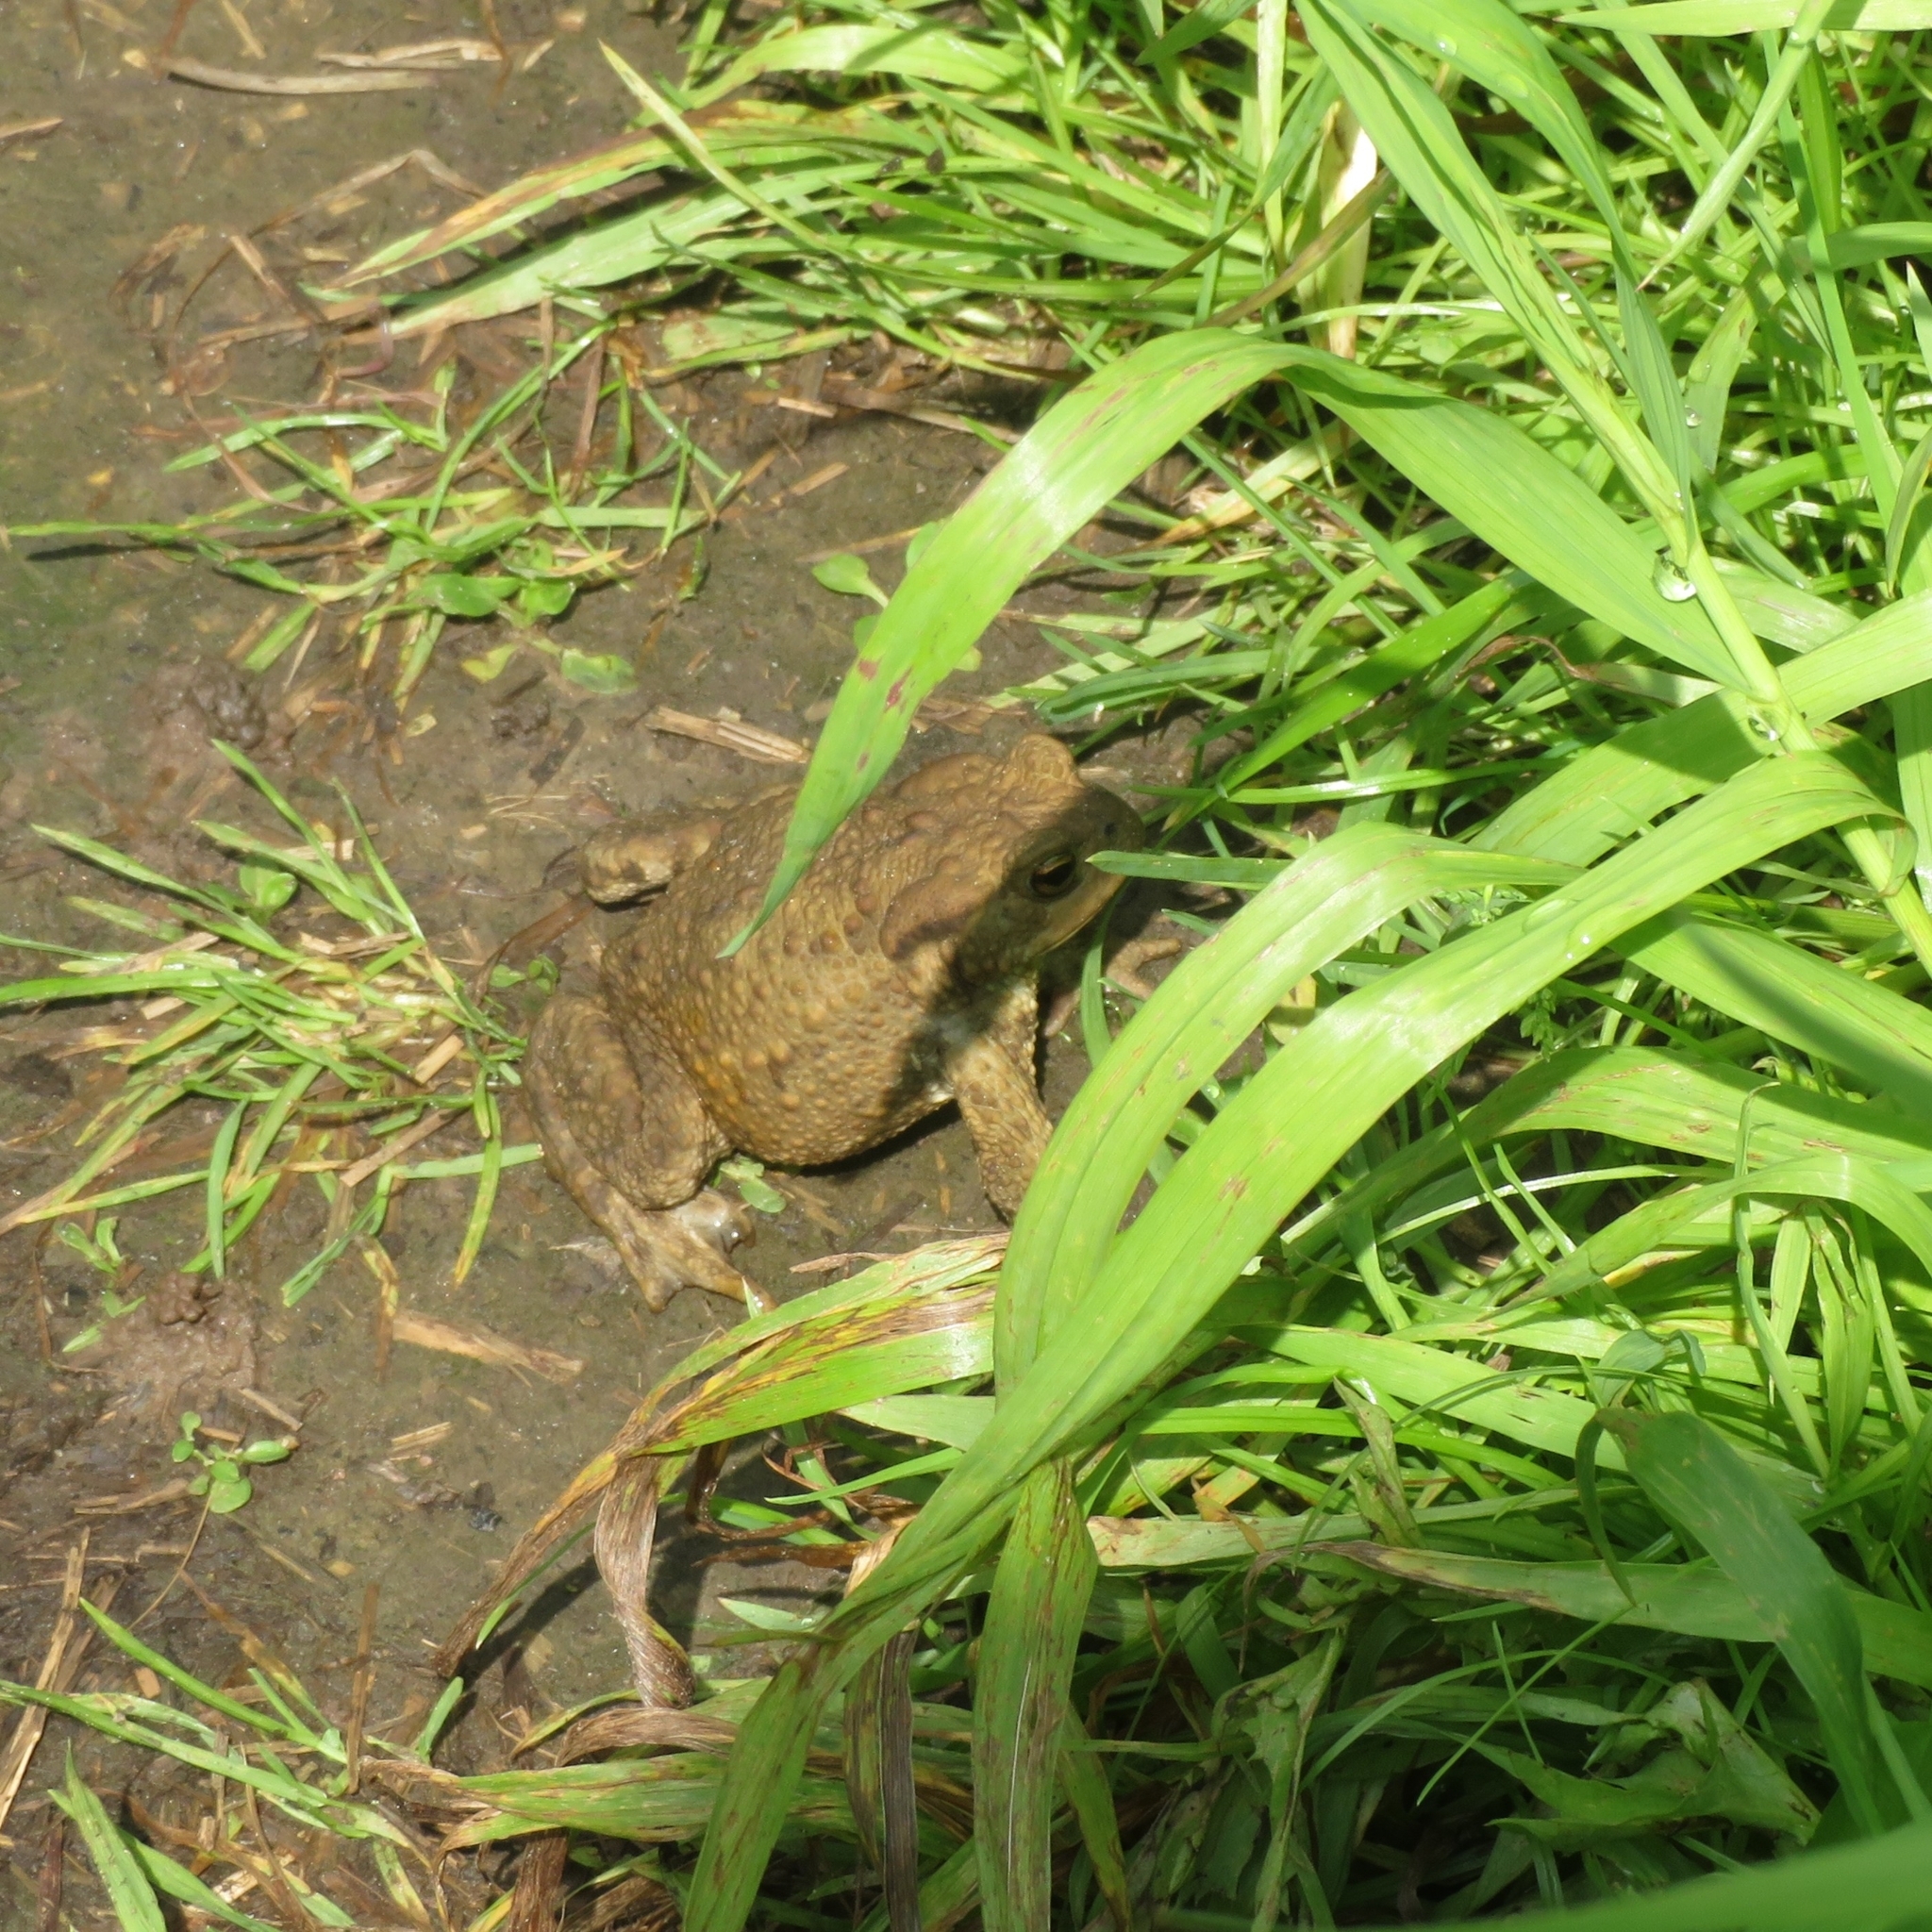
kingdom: Animalia
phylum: Chordata
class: Amphibia
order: Anura
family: Bufonidae
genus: Bufo
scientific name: Bufo bufo
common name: Common toad
